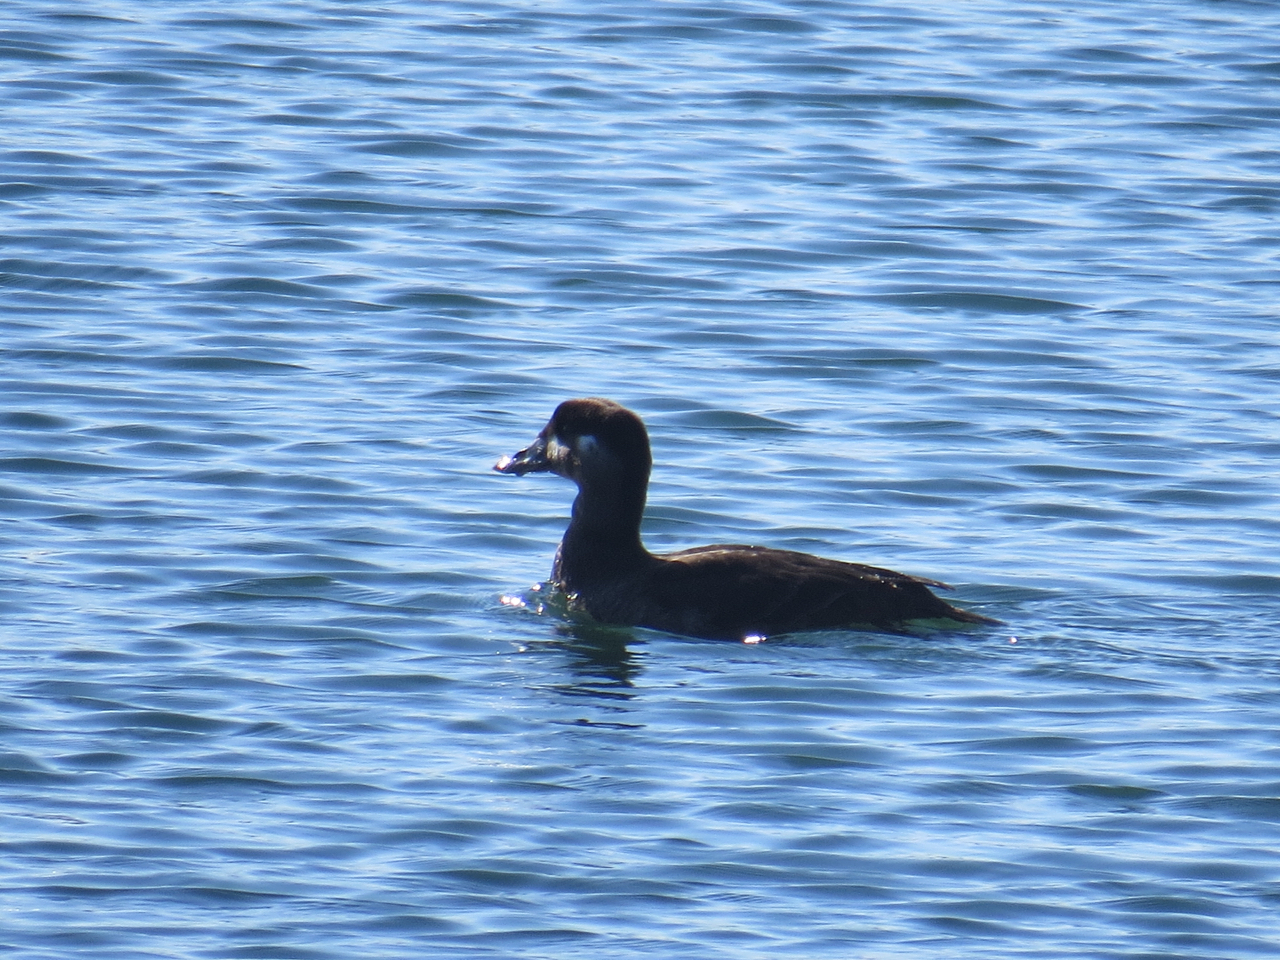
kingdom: Animalia
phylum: Chordata
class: Aves
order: Anseriformes
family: Anatidae
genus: Melanitta
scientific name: Melanitta perspicillata
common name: Surf scoter
